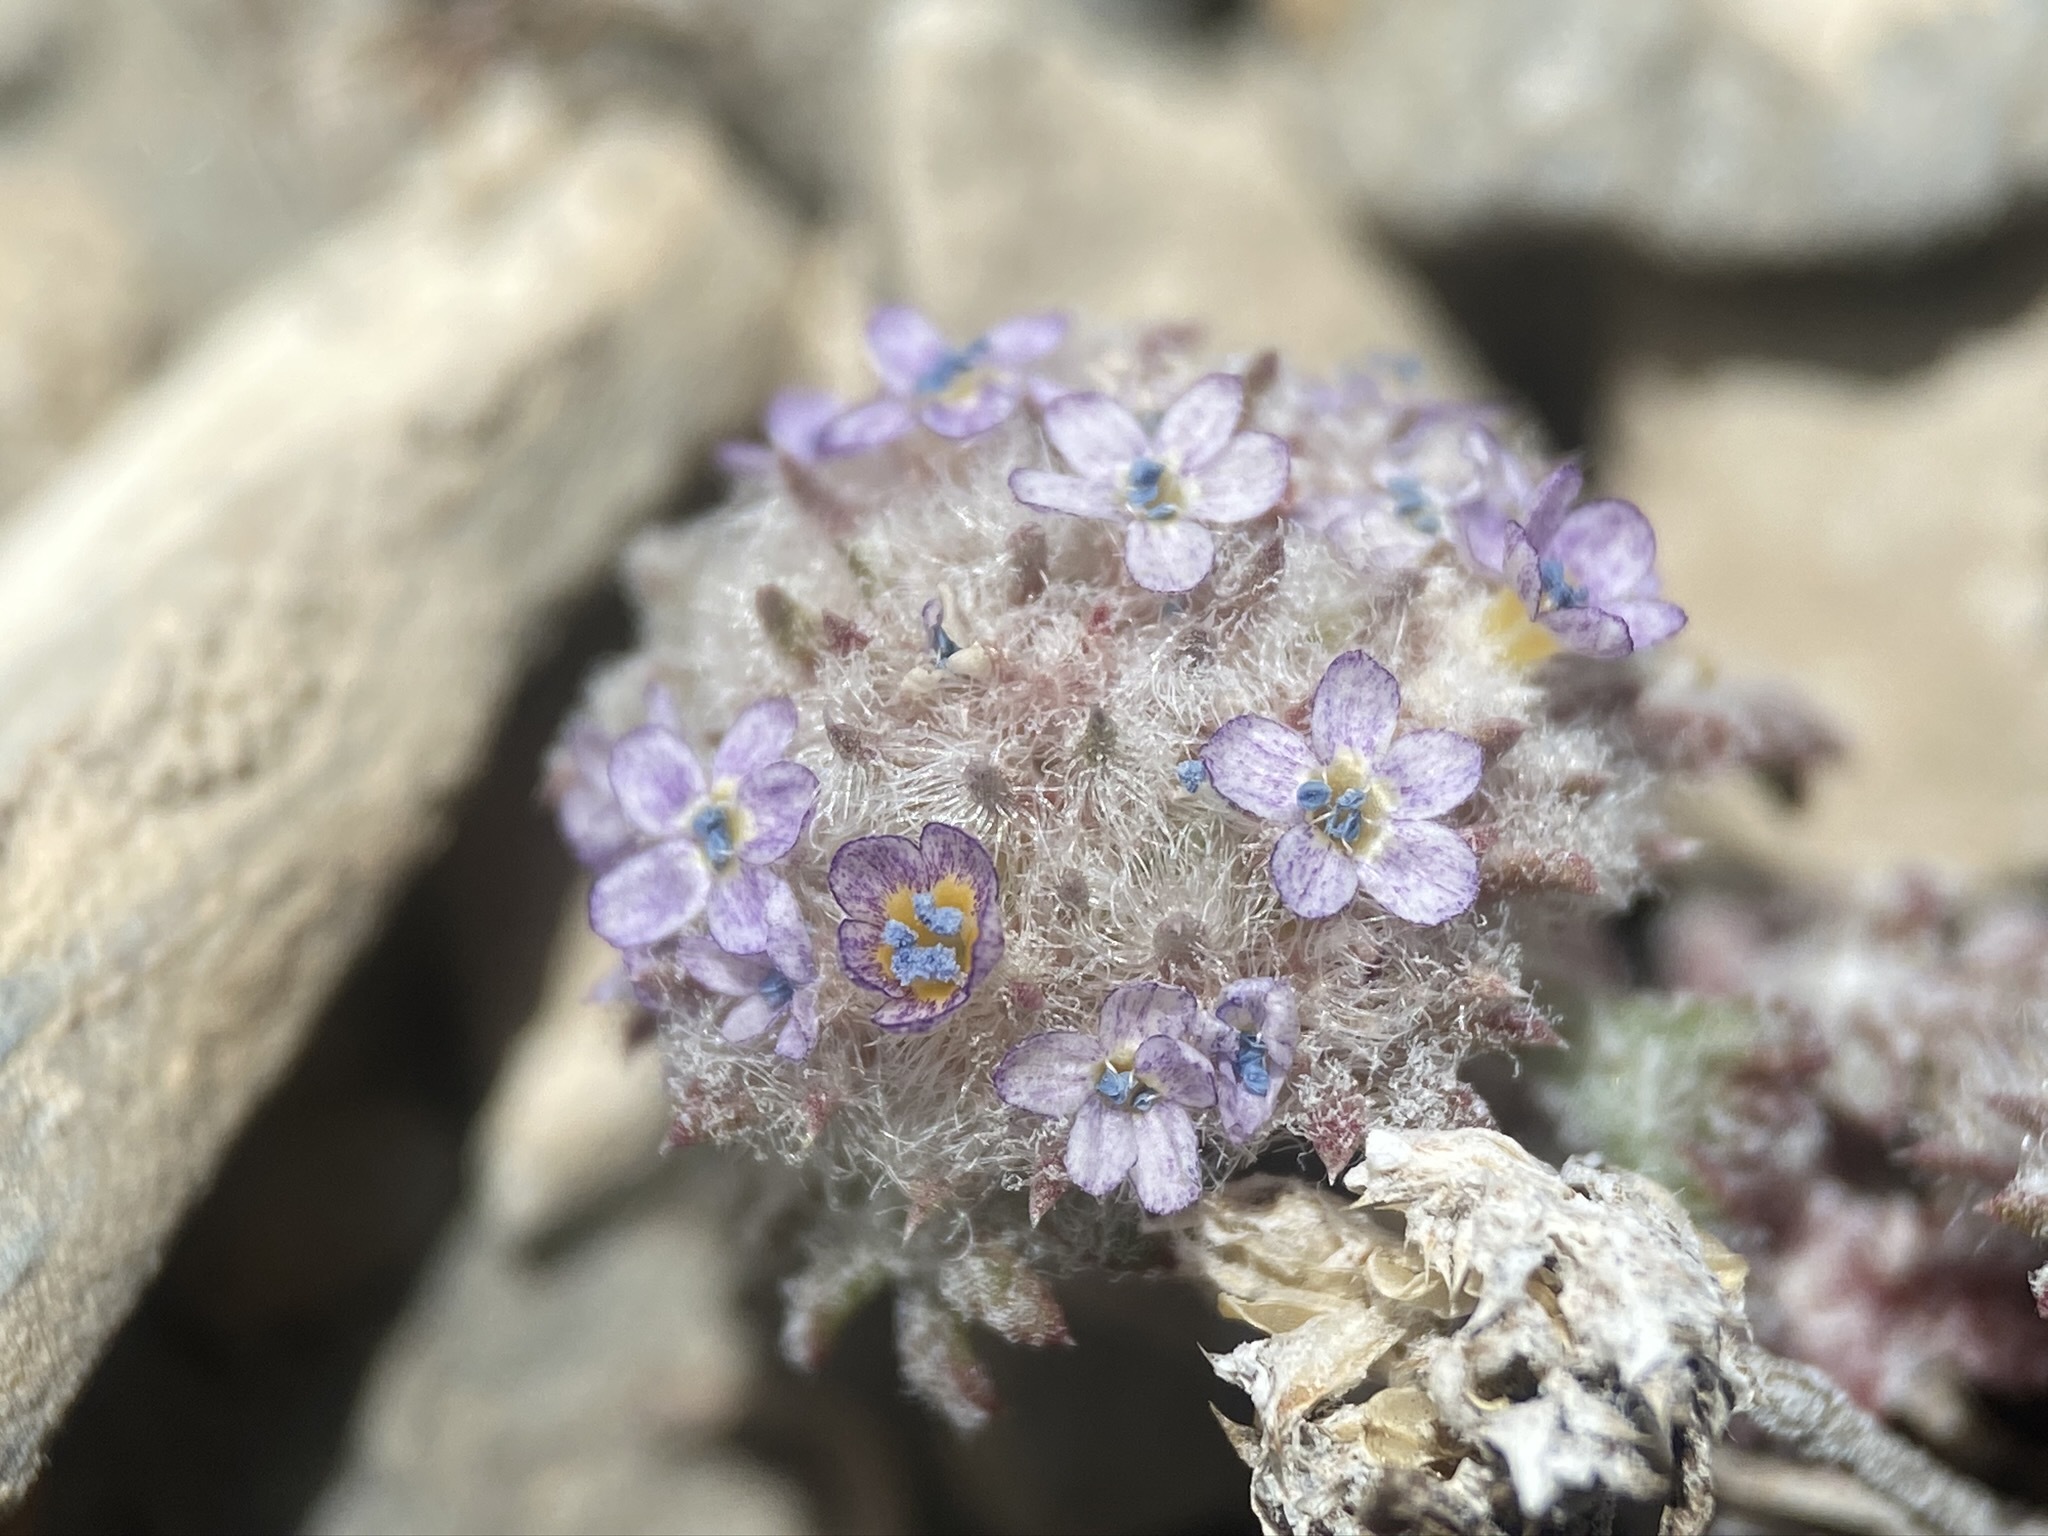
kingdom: Plantae
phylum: Tracheophyta
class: Magnoliopsida
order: Ericales
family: Polemoniaceae
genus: Ipomopsis
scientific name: Ipomopsis congesta
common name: Ball-head gilia
